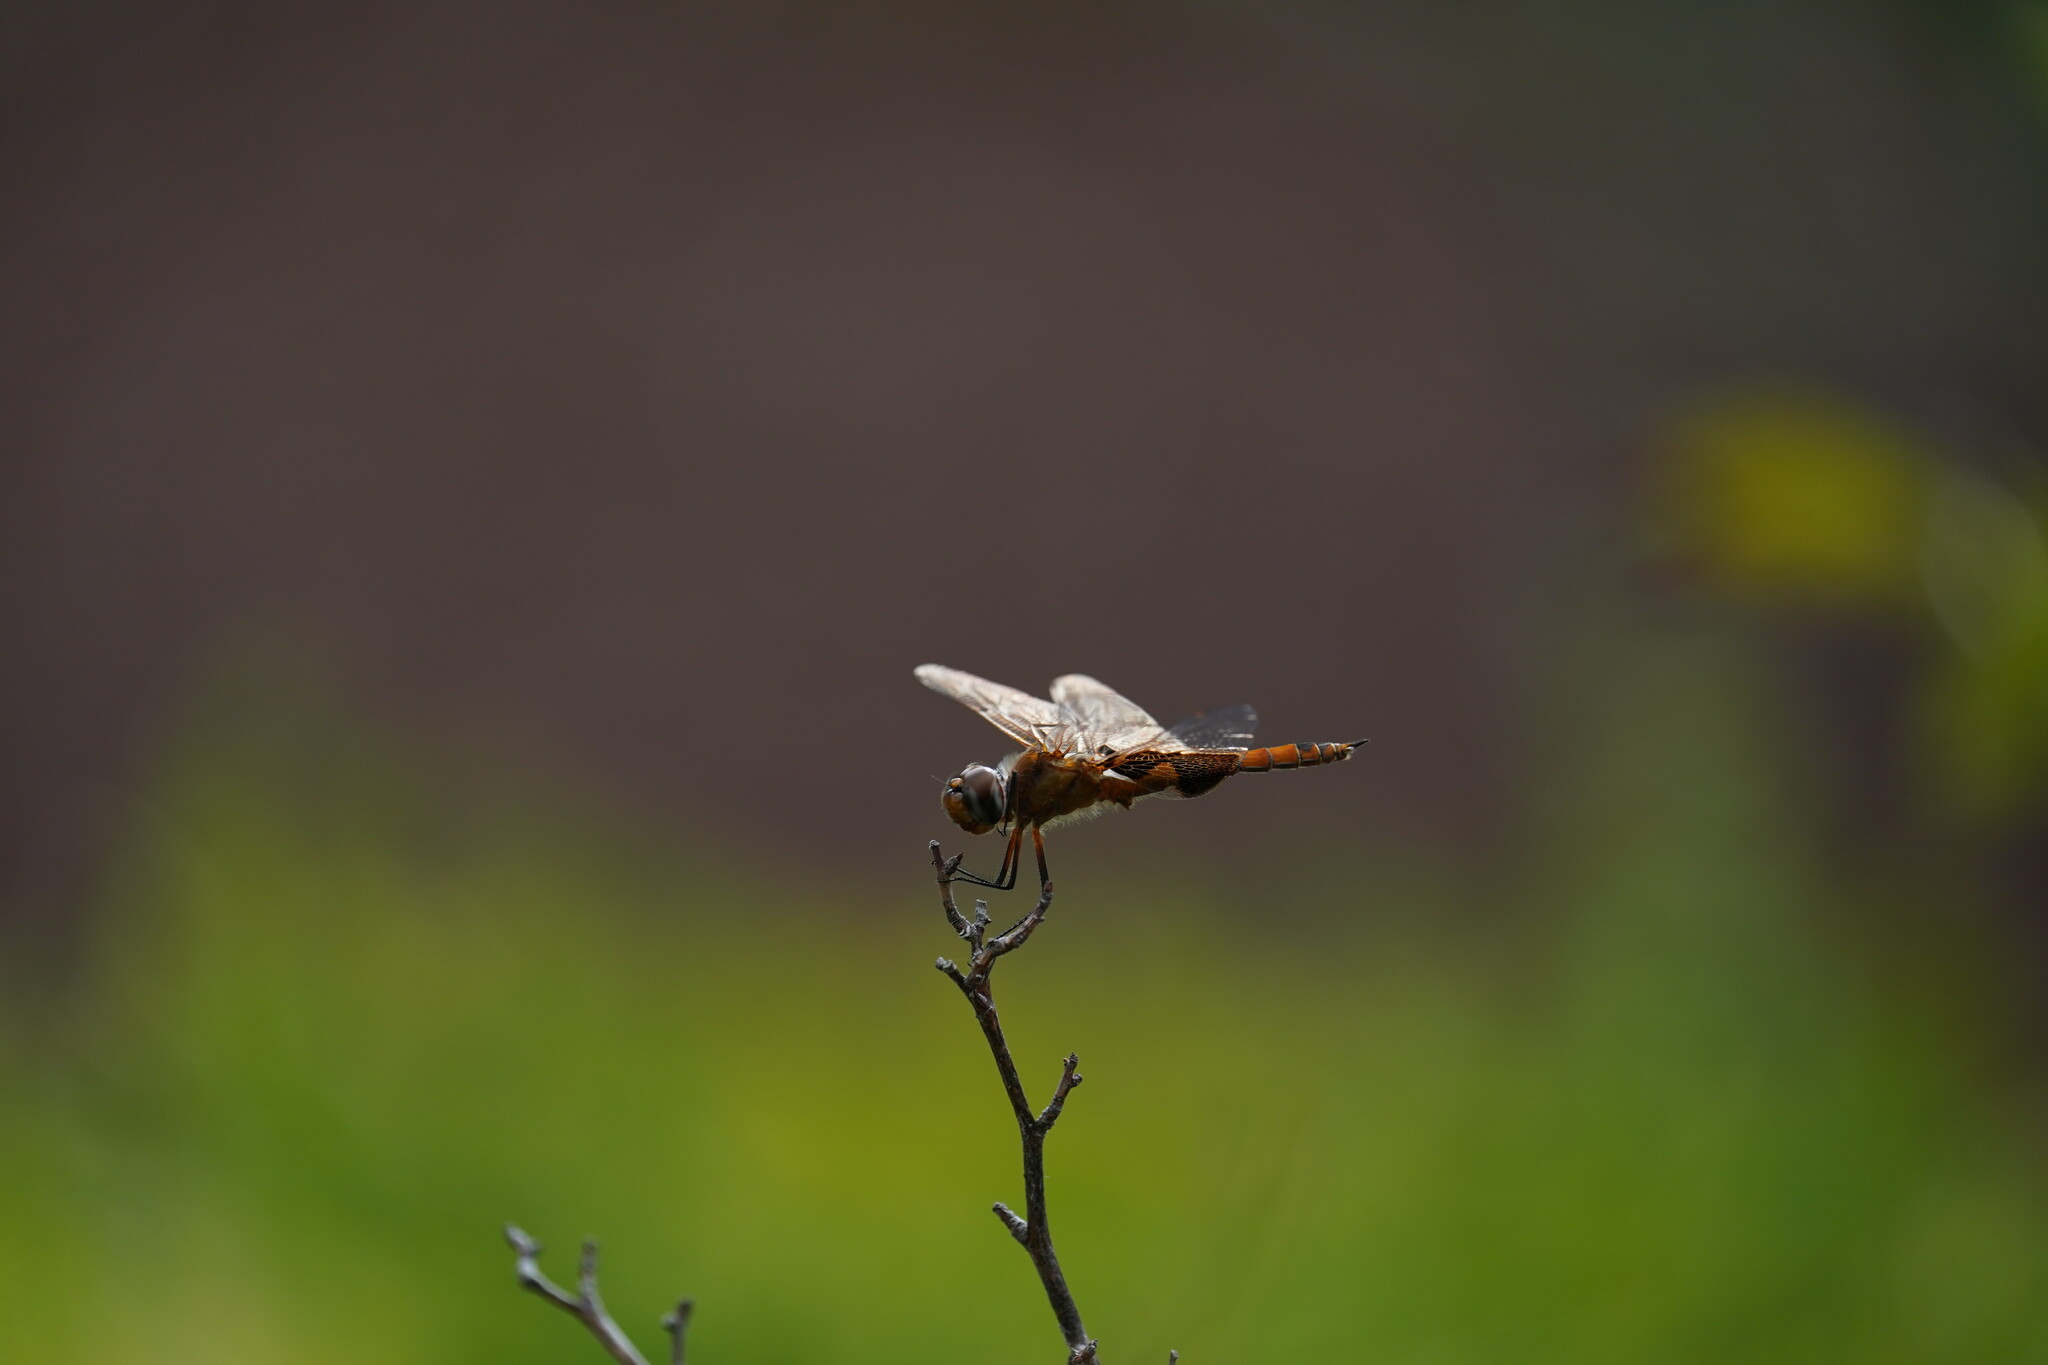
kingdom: Animalia
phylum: Arthropoda
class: Insecta
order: Odonata
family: Libellulidae
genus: Tramea
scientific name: Tramea onusta
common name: Red saddlebags
